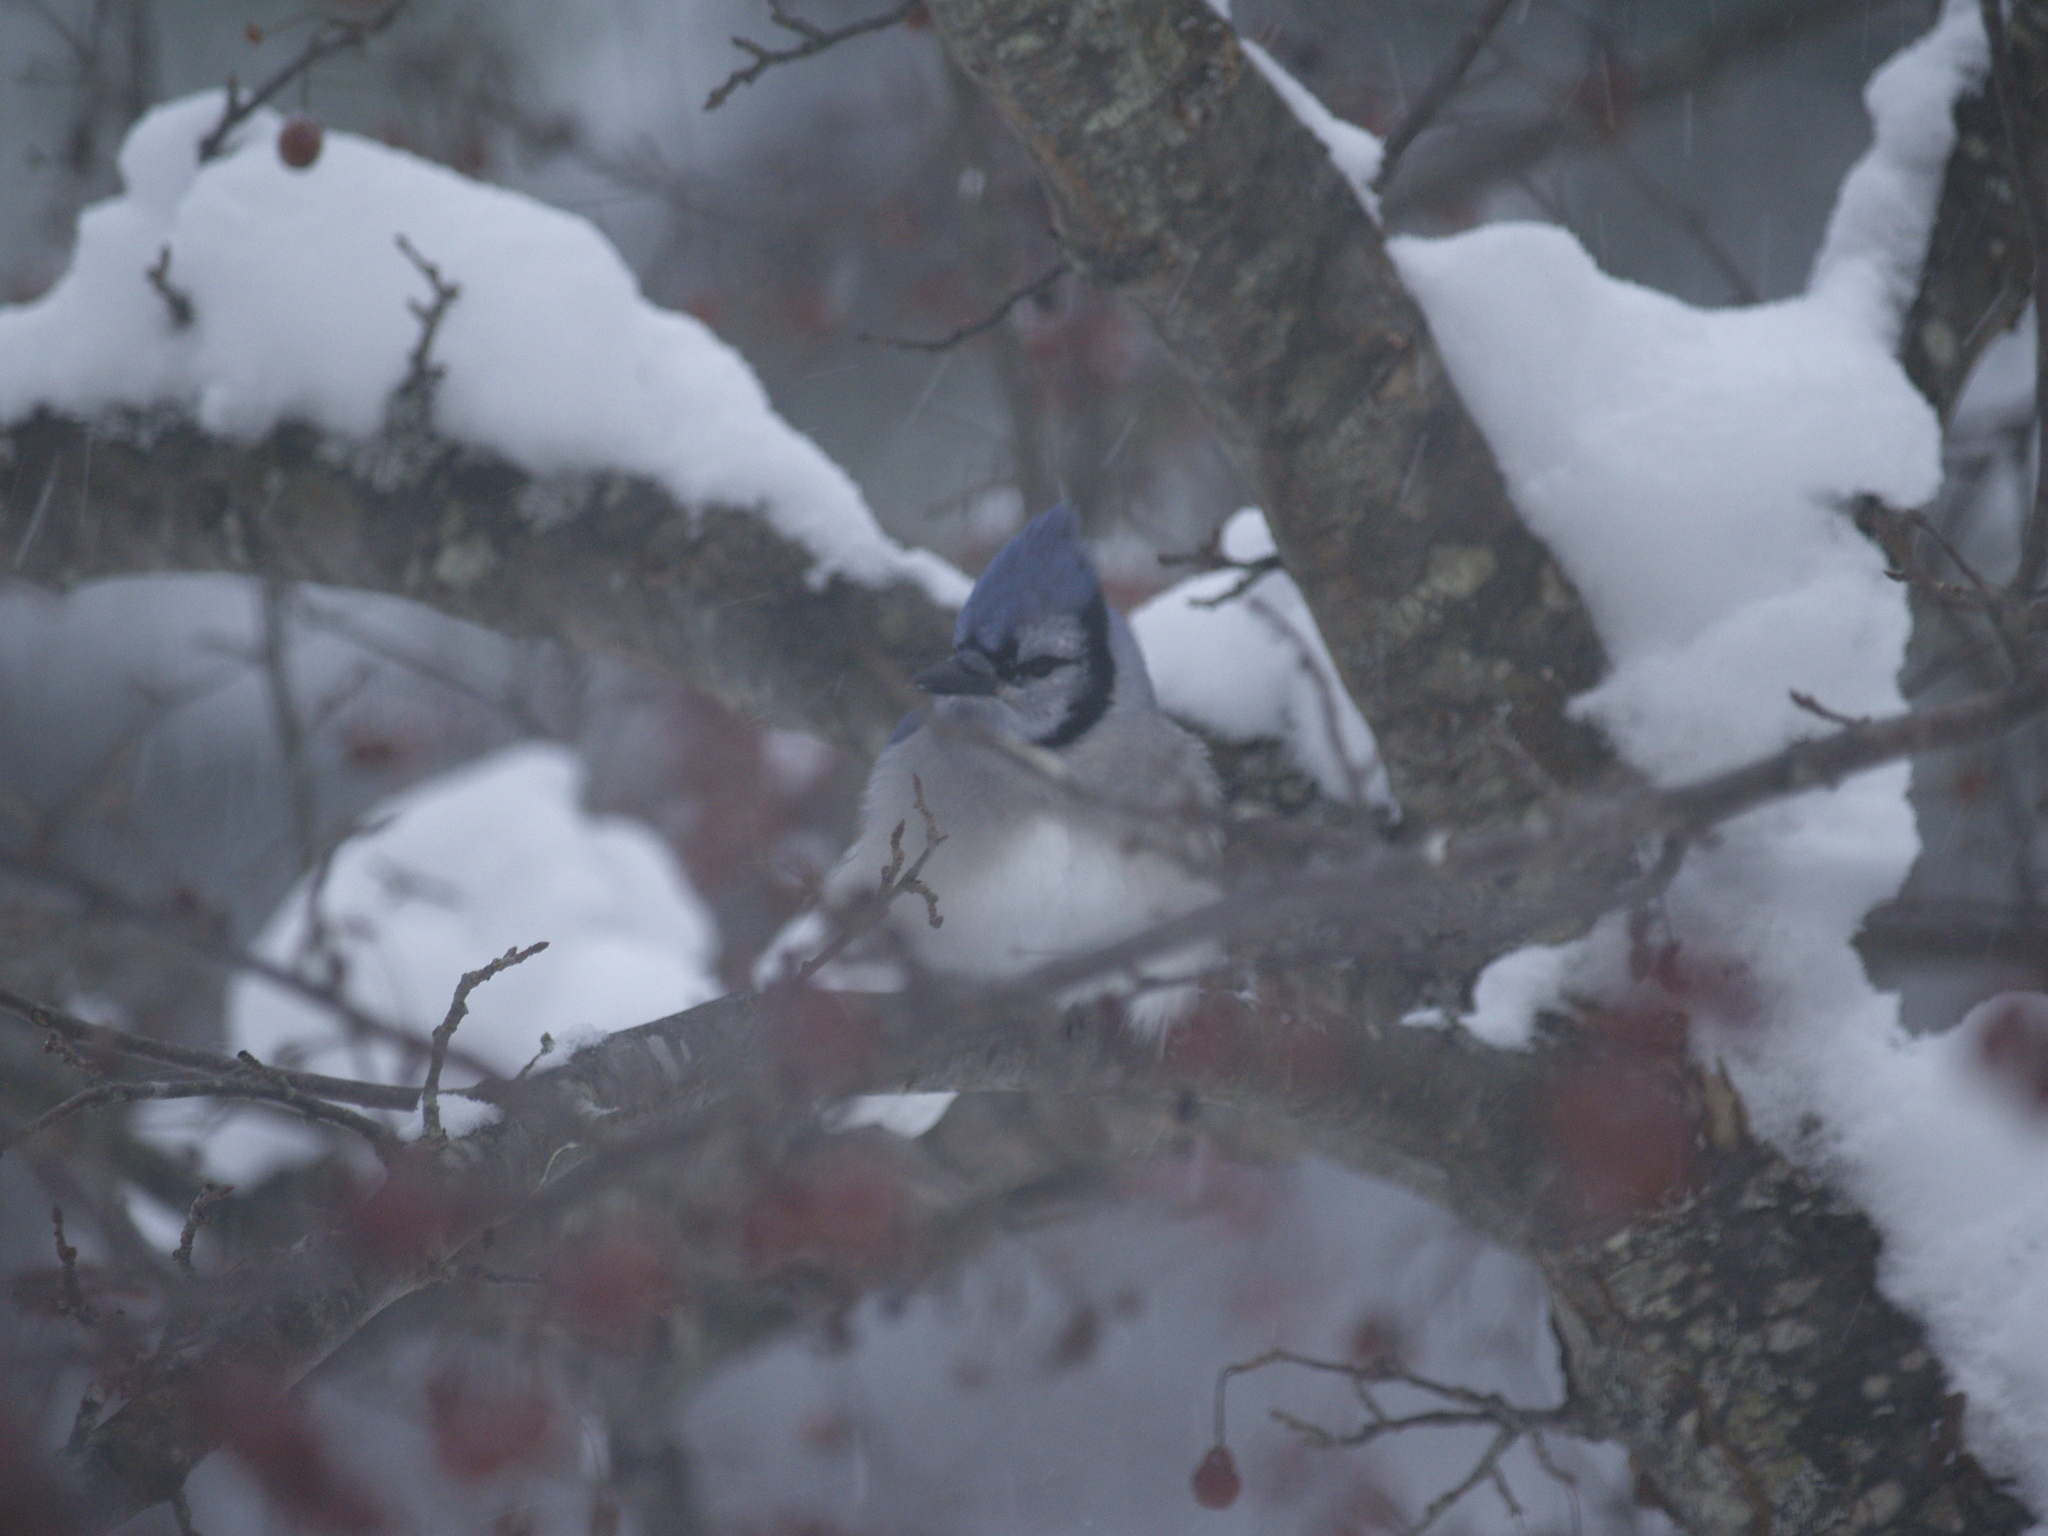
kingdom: Animalia
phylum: Chordata
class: Aves
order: Passeriformes
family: Corvidae
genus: Cyanocitta
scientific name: Cyanocitta cristata
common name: Blue jay
